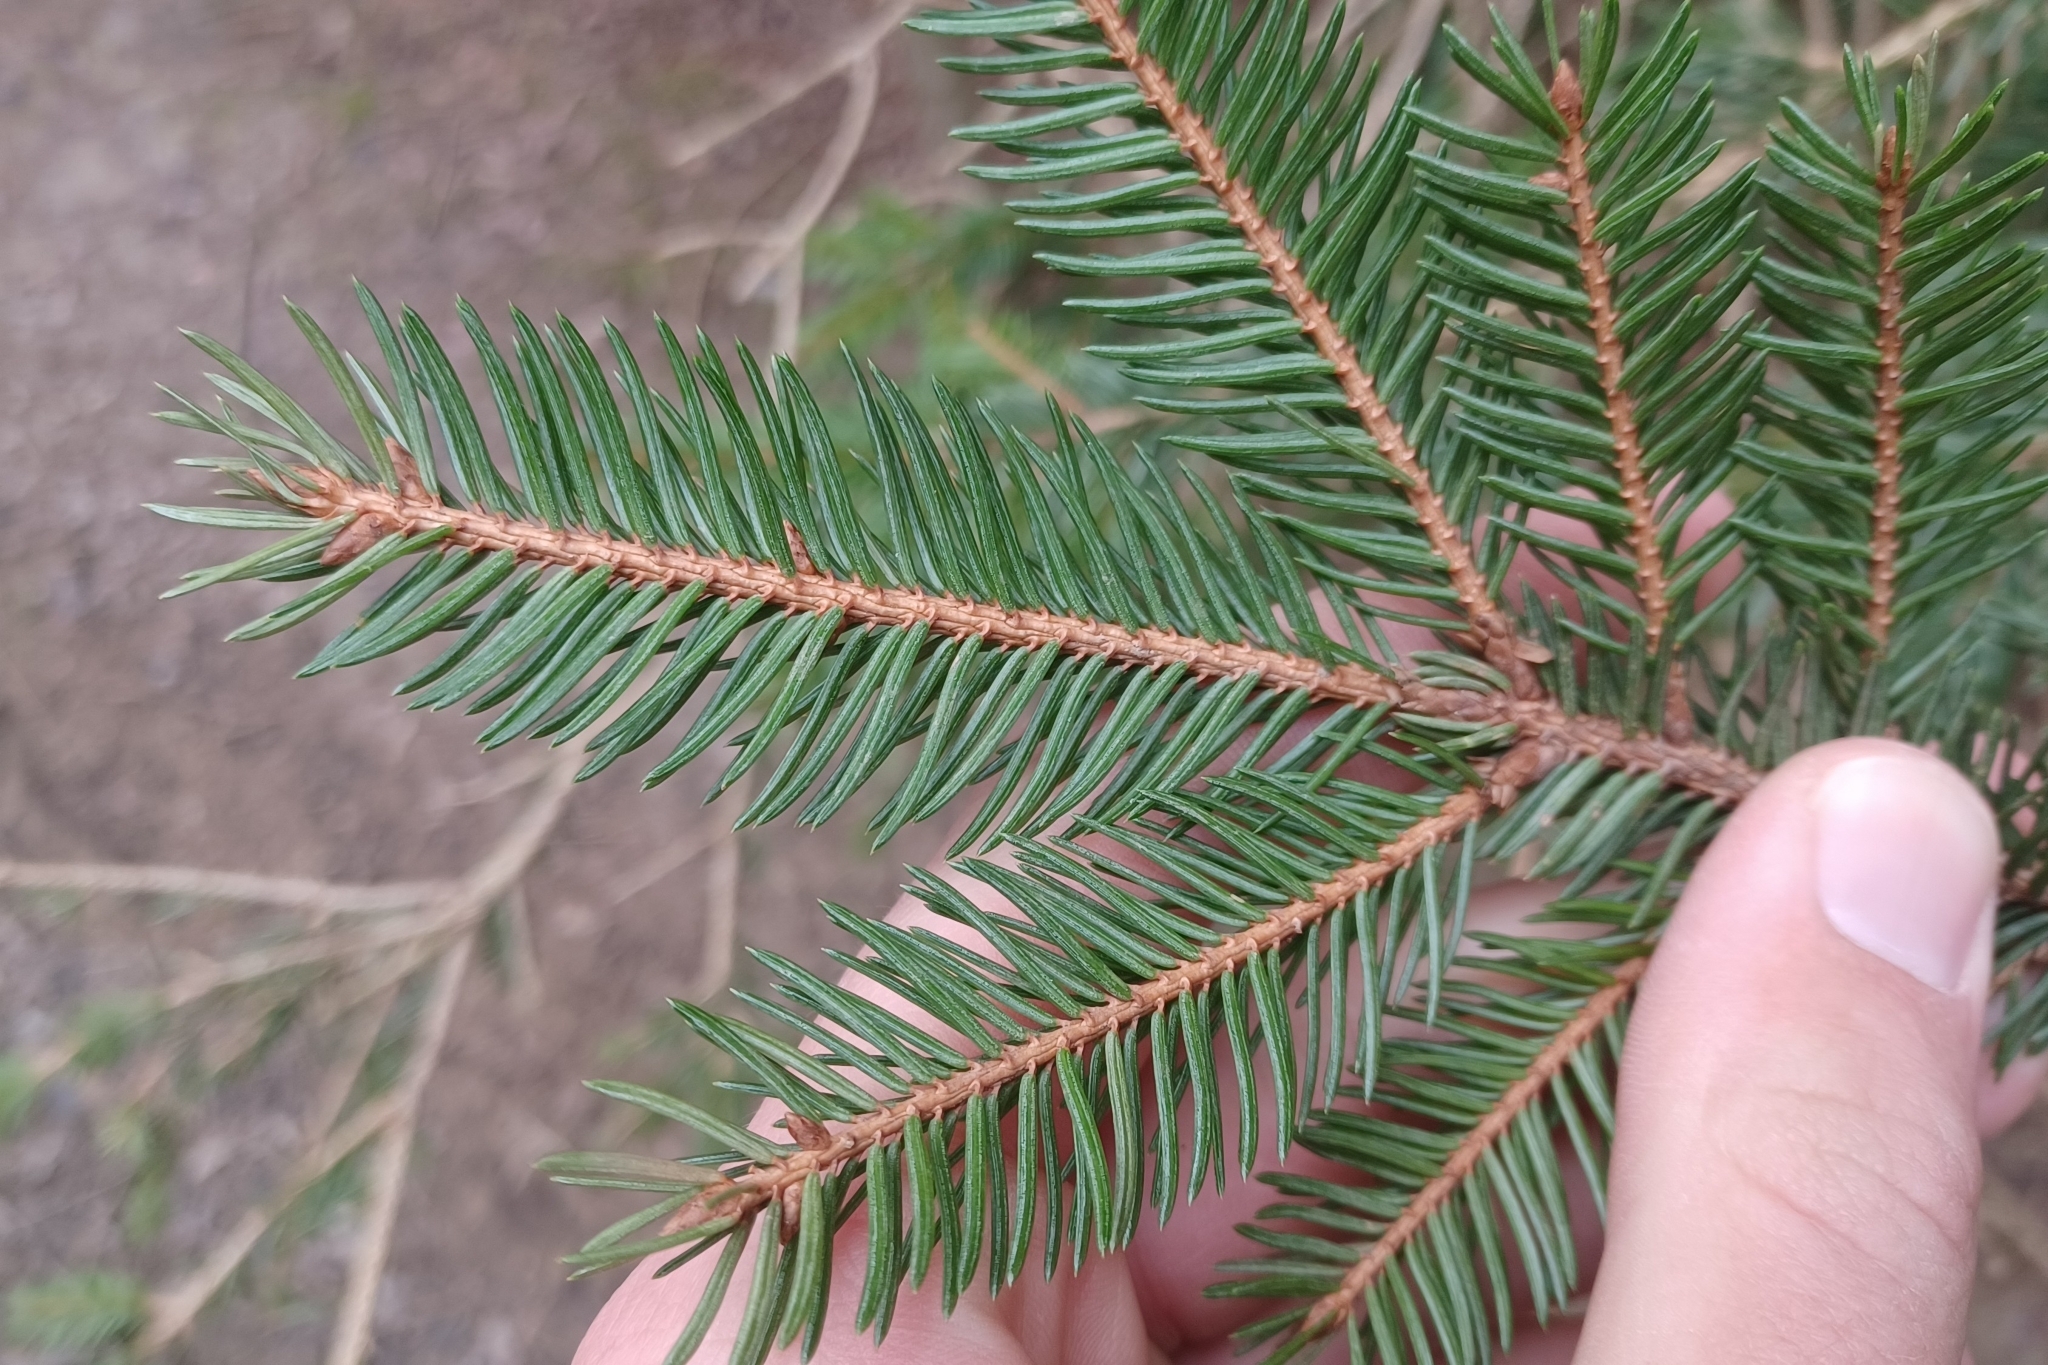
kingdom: Plantae
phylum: Tracheophyta
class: Pinopsida
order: Pinales
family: Pinaceae
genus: Picea
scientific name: Picea abies
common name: Norway spruce
